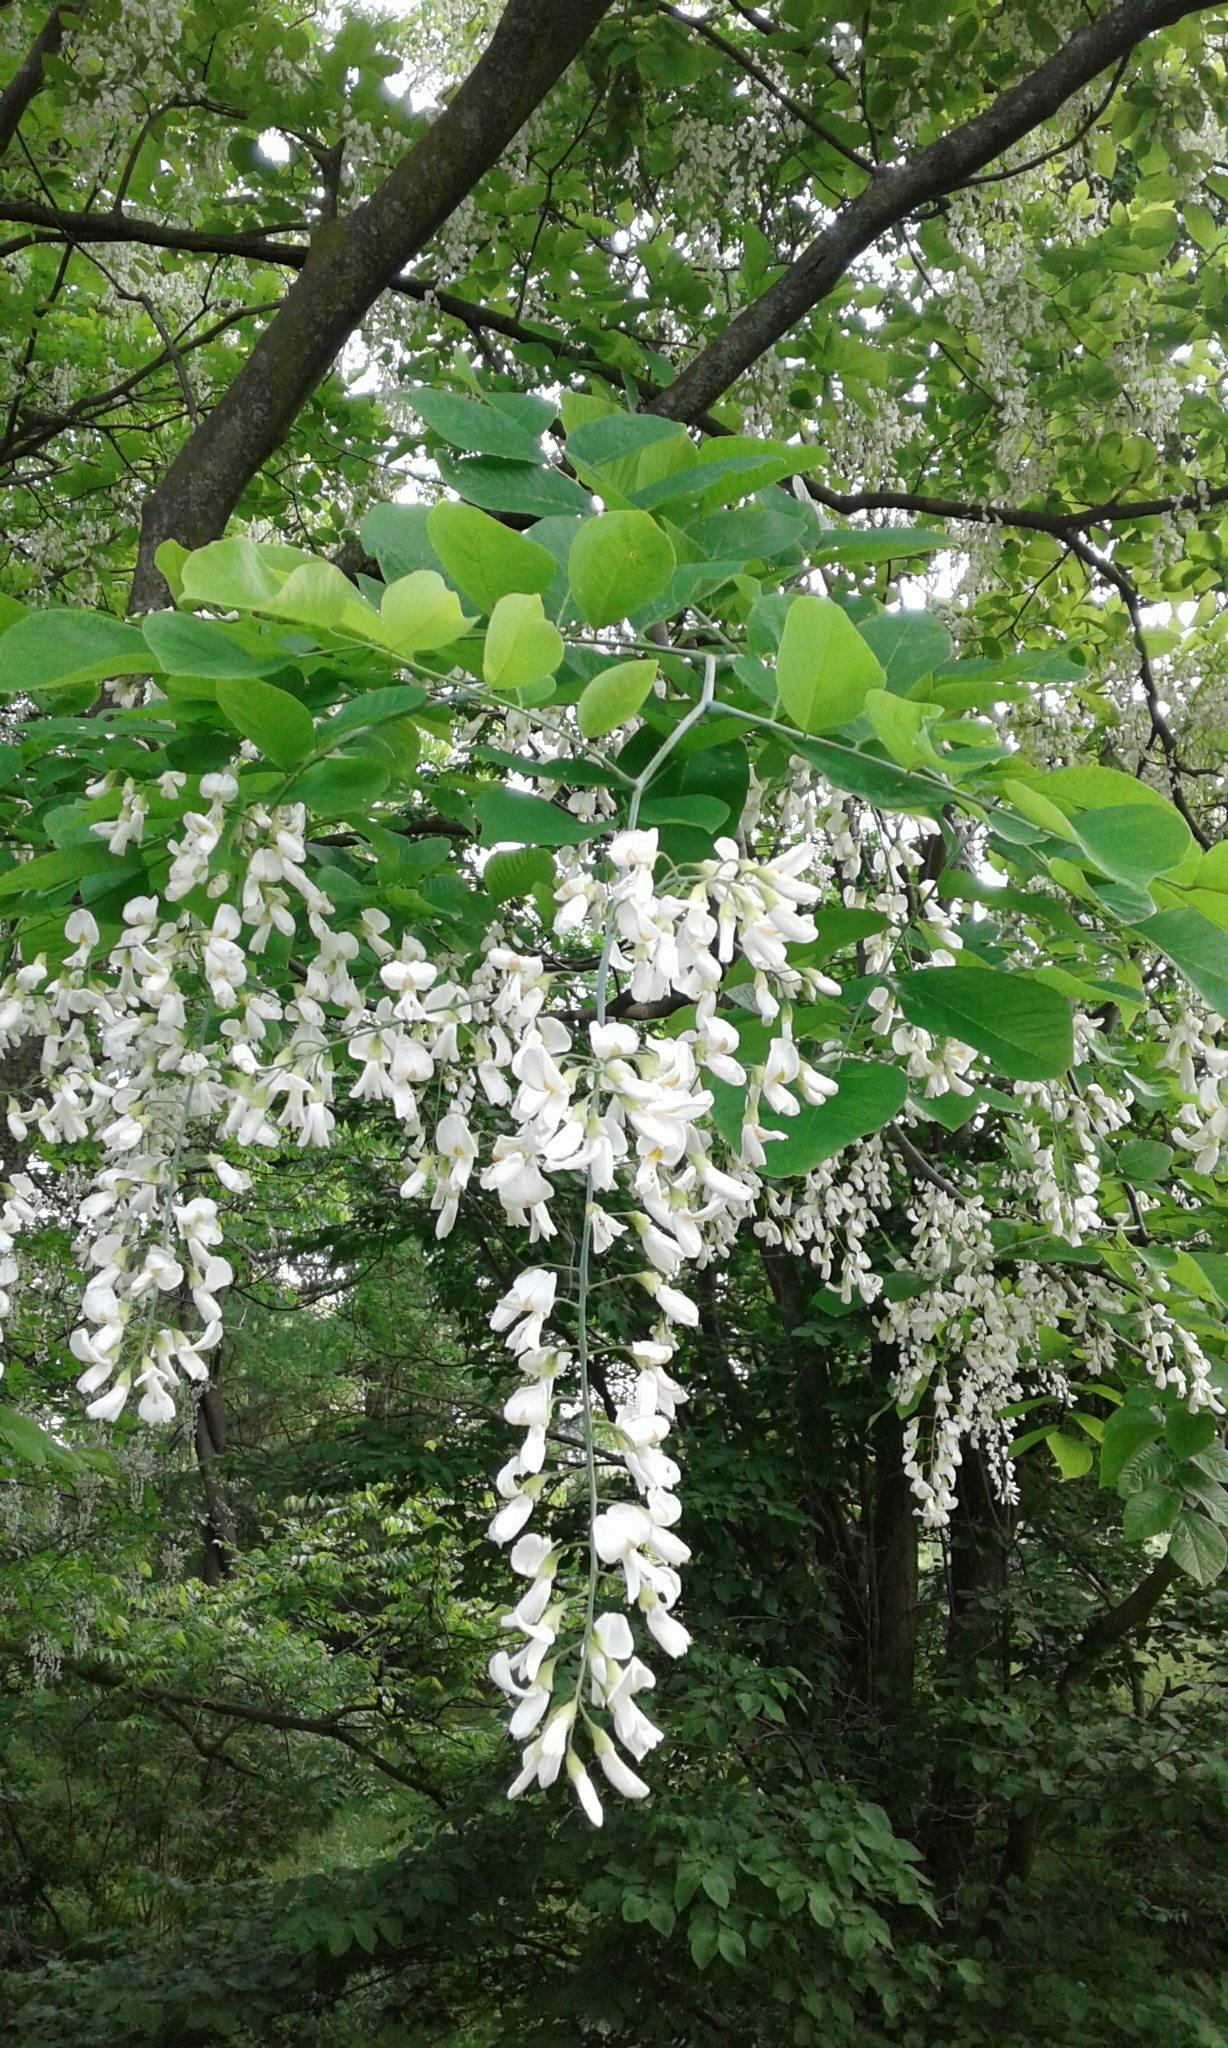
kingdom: Plantae
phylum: Tracheophyta
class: Magnoliopsida
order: Fabales
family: Fabaceae
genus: Robinia
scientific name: Robinia pseudoacacia
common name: Black locust
